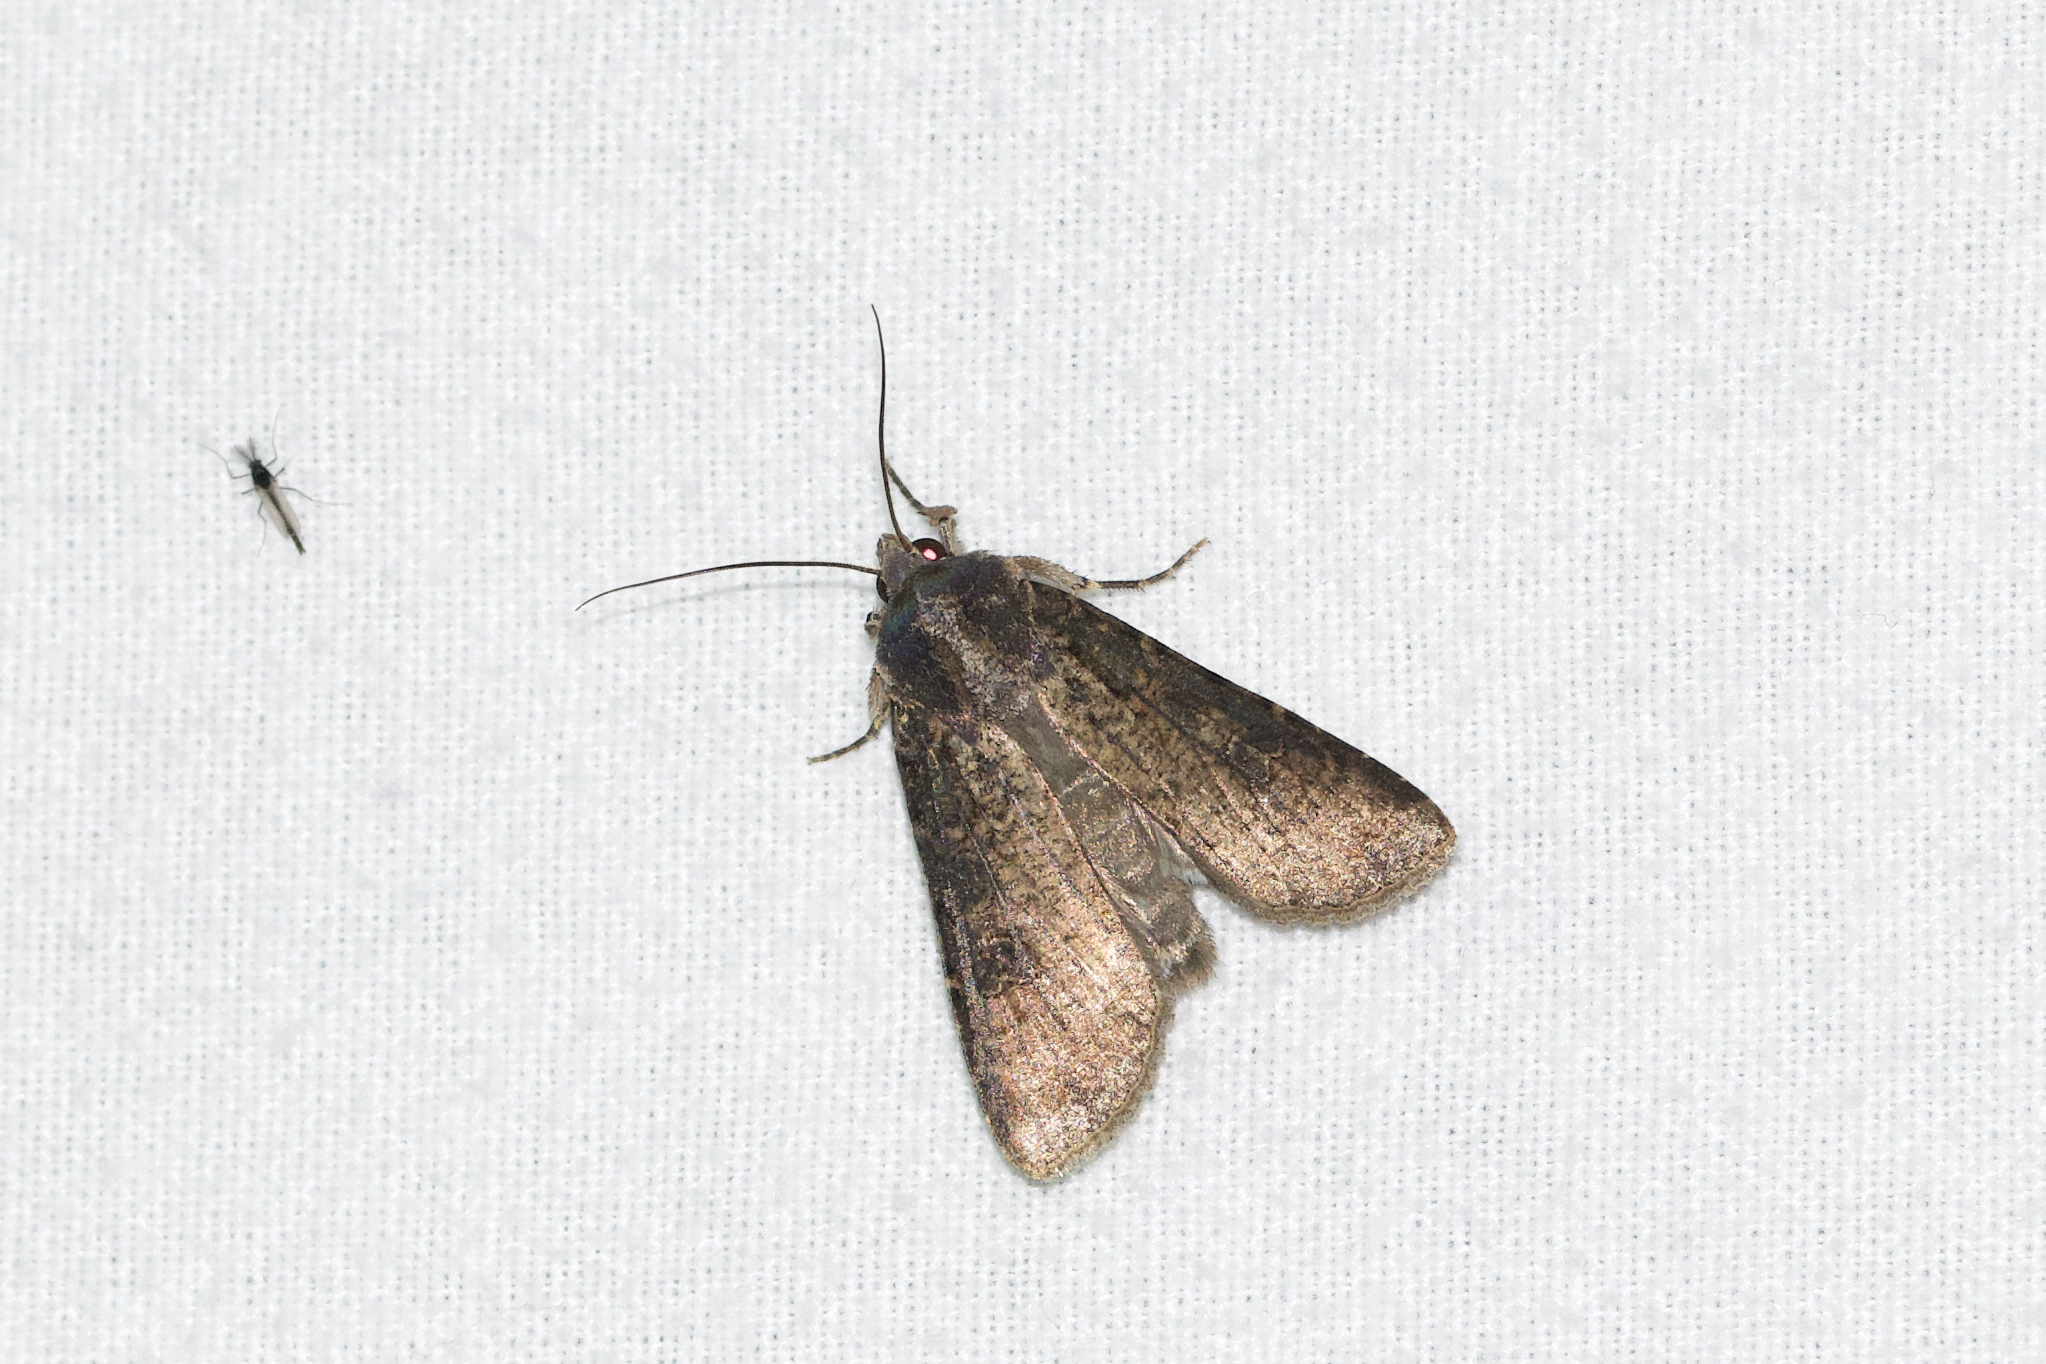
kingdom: Animalia
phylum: Arthropoda
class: Insecta
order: Lepidoptera
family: Noctuidae
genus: Peridroma
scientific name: Peridroma saucia
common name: Pearly underwing
